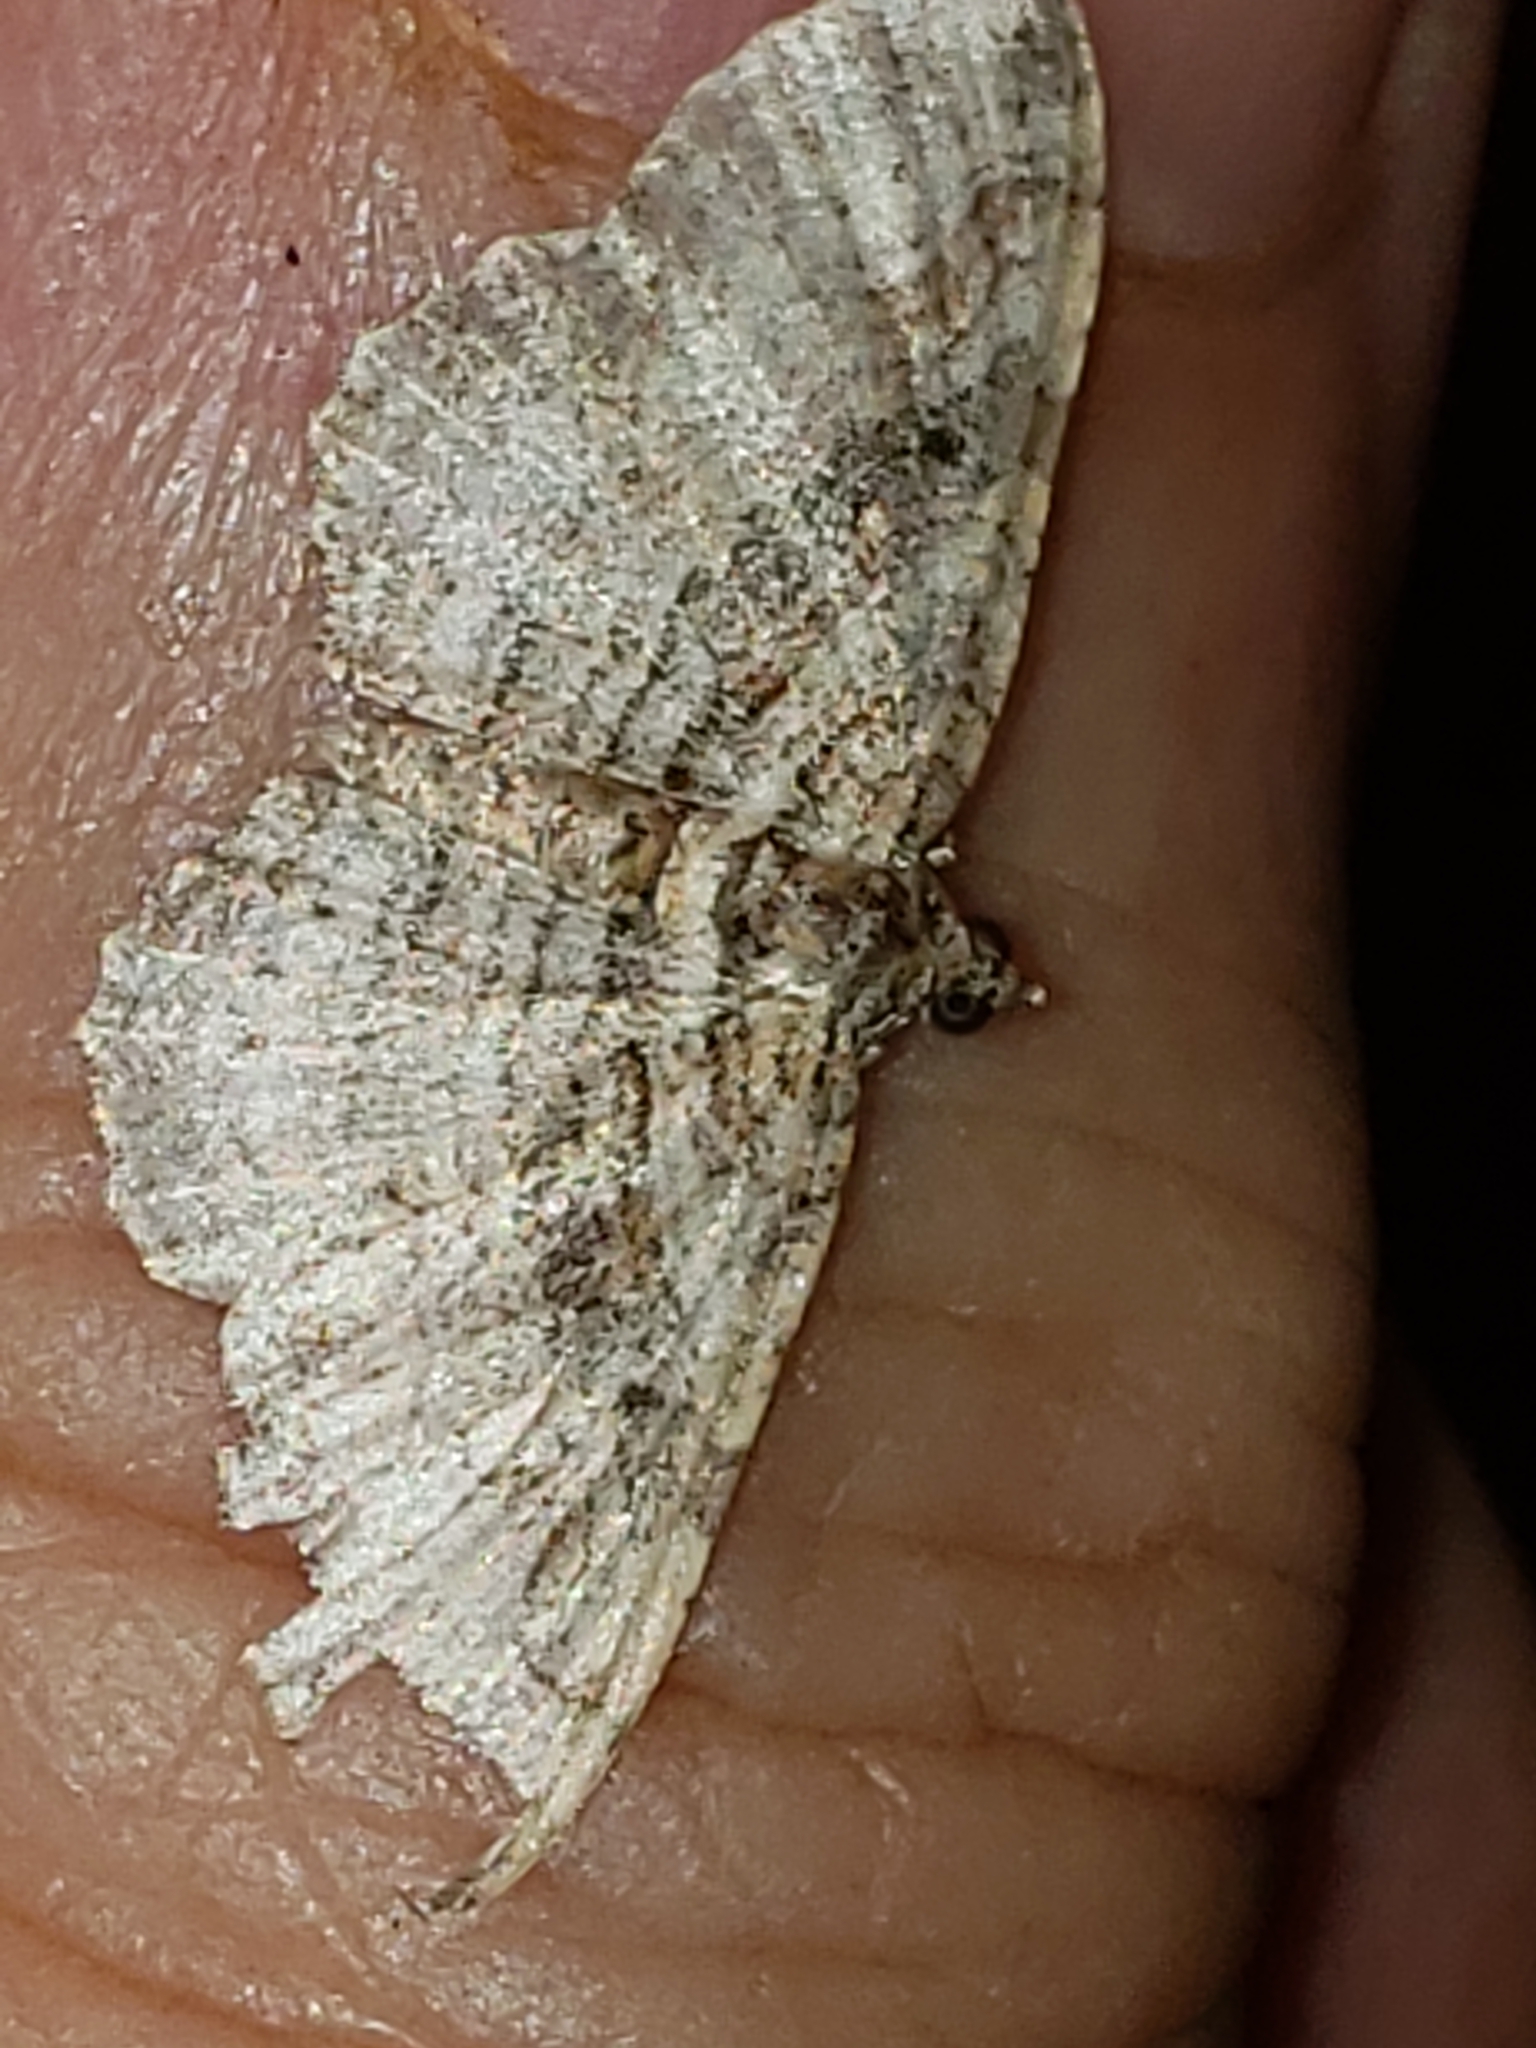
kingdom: Animalia
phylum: Arthropoda
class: Insecta
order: Lepidoptera
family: Geometridae
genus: Costaconvexa
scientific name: Costaconvexa centrostrigaria
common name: Bent-line carpet
